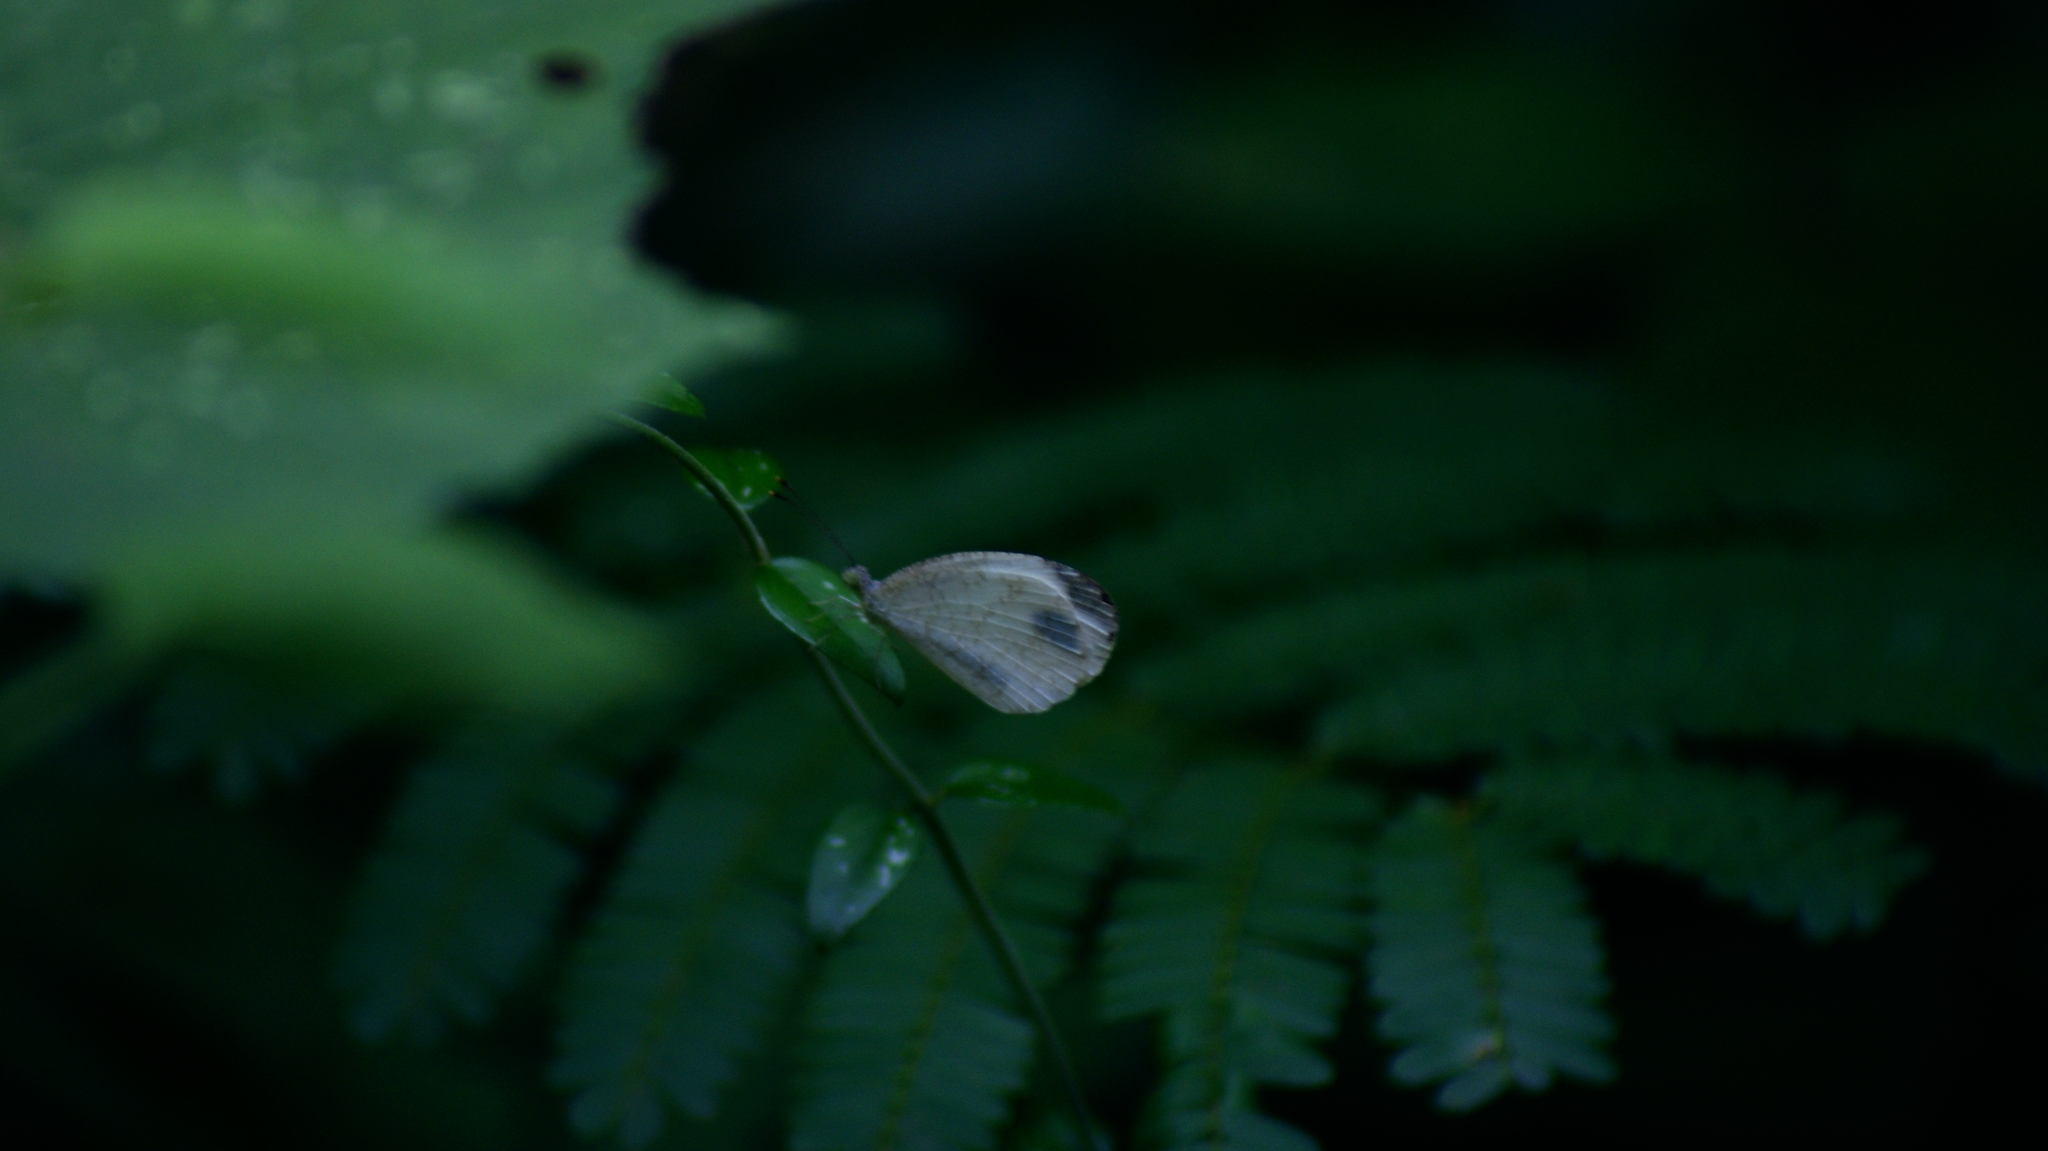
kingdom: Animalia
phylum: Arthropoda
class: Insecta
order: Lepidoptera
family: Pieridae
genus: Leptosia
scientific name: Leptosia nina
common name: Psyche
